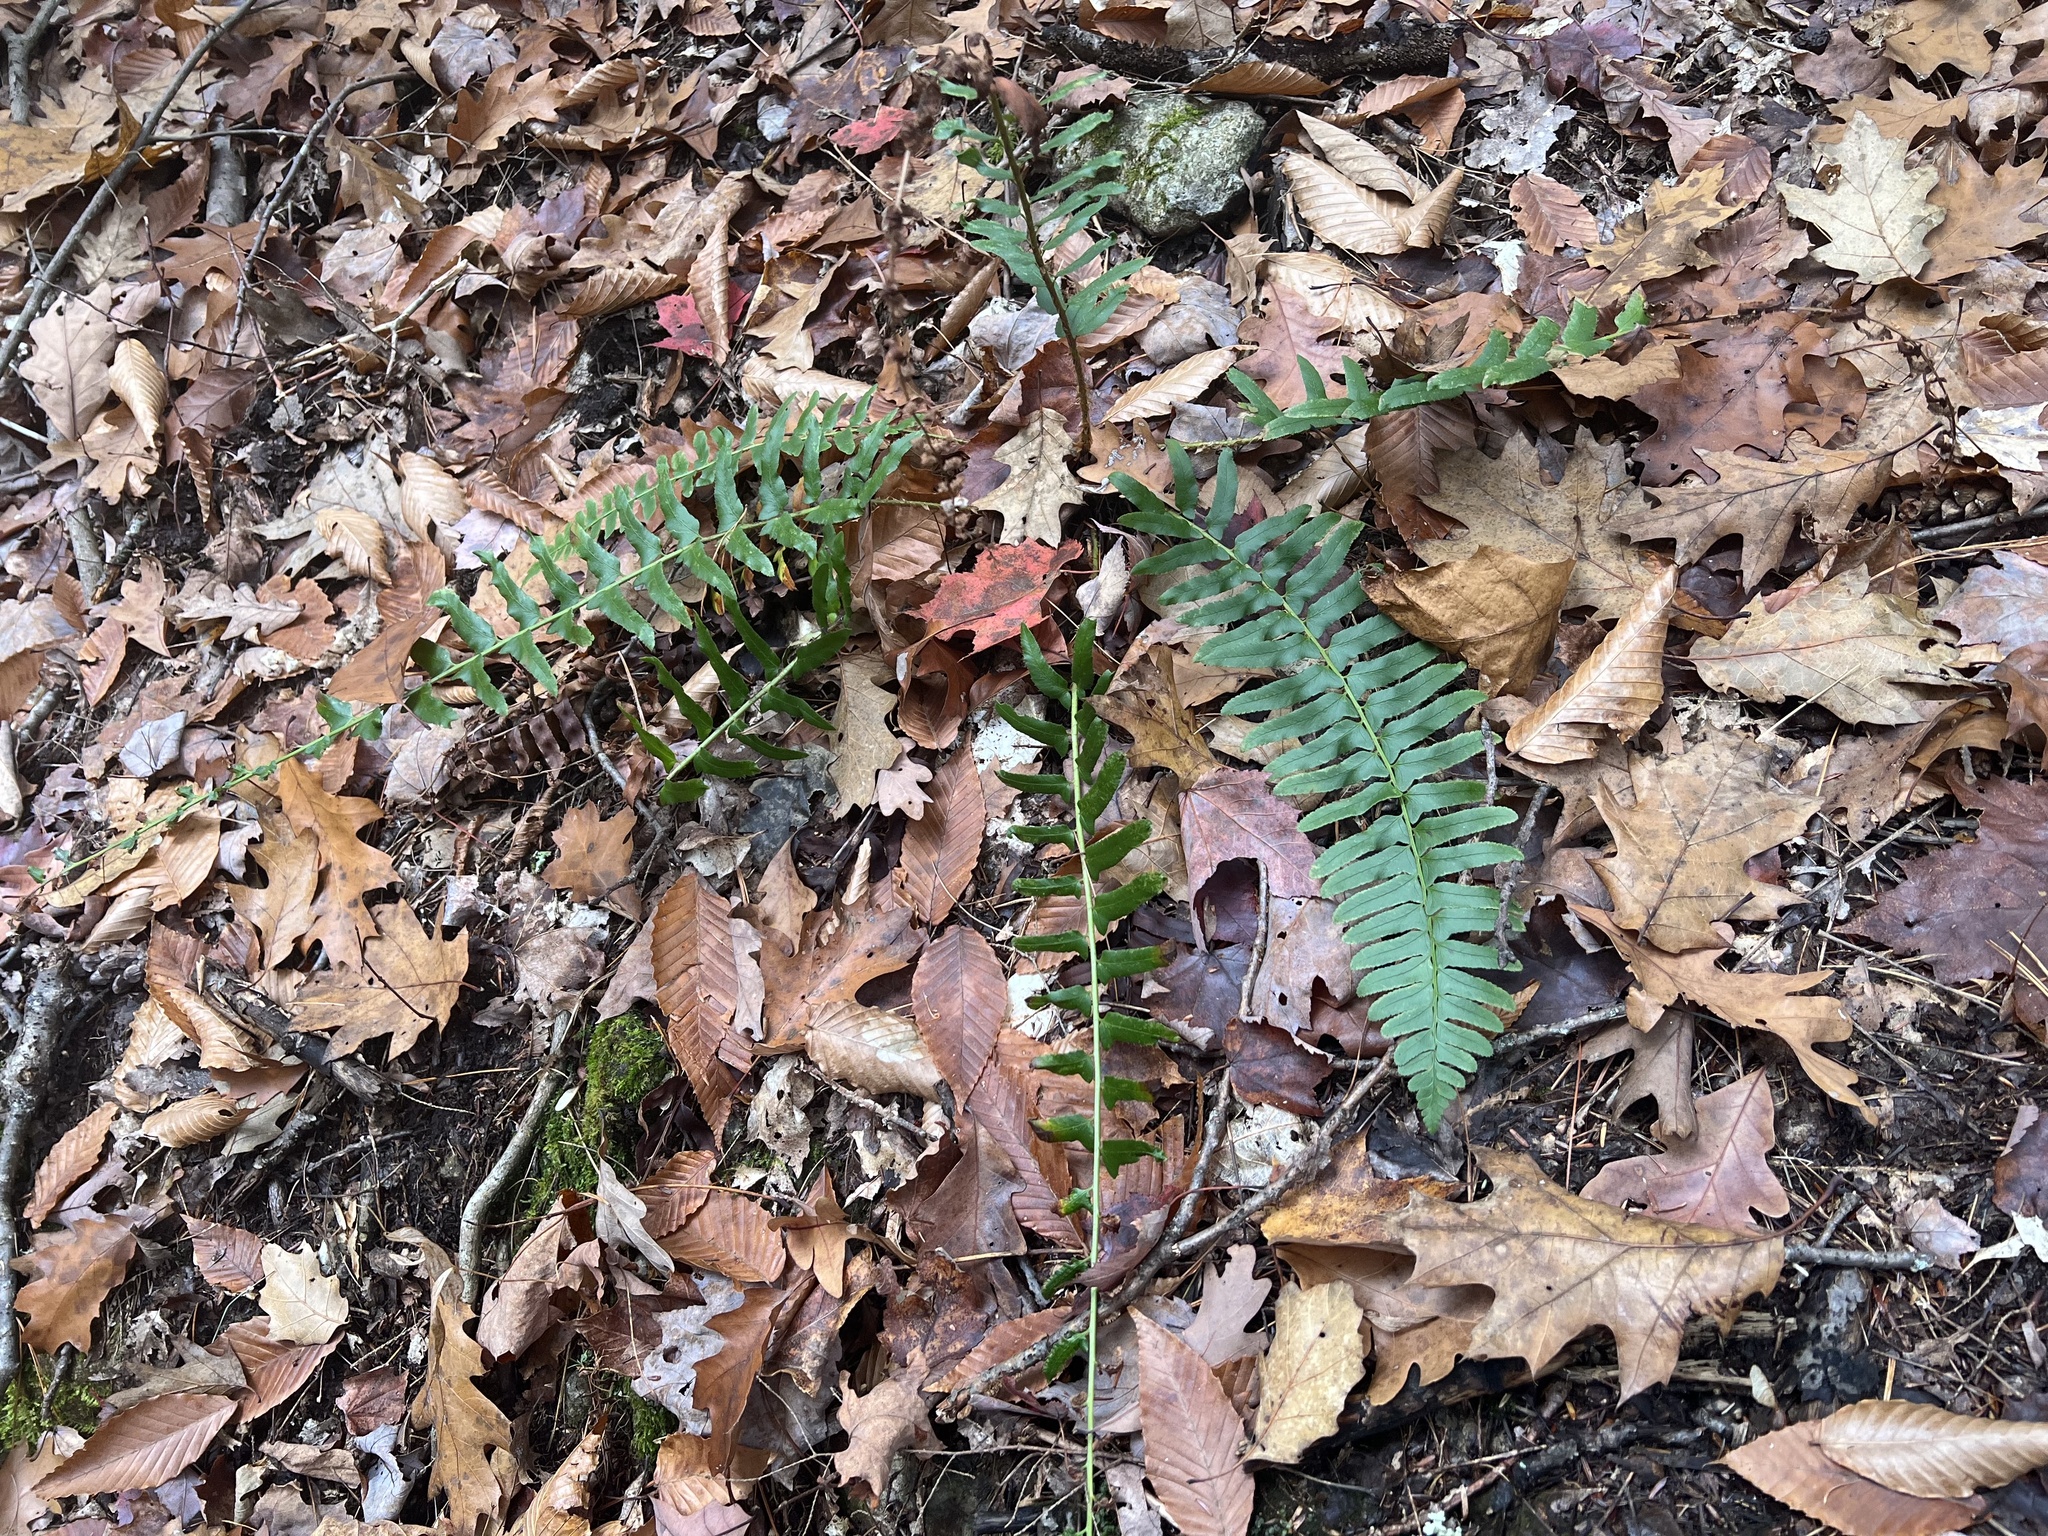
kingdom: Plantae
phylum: Tracheophyta
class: Polypodiopsida
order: Polypodiales
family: Dryopteridaceae
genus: Polystichum
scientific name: Polystichum acrostichoides
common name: Christmas fern
